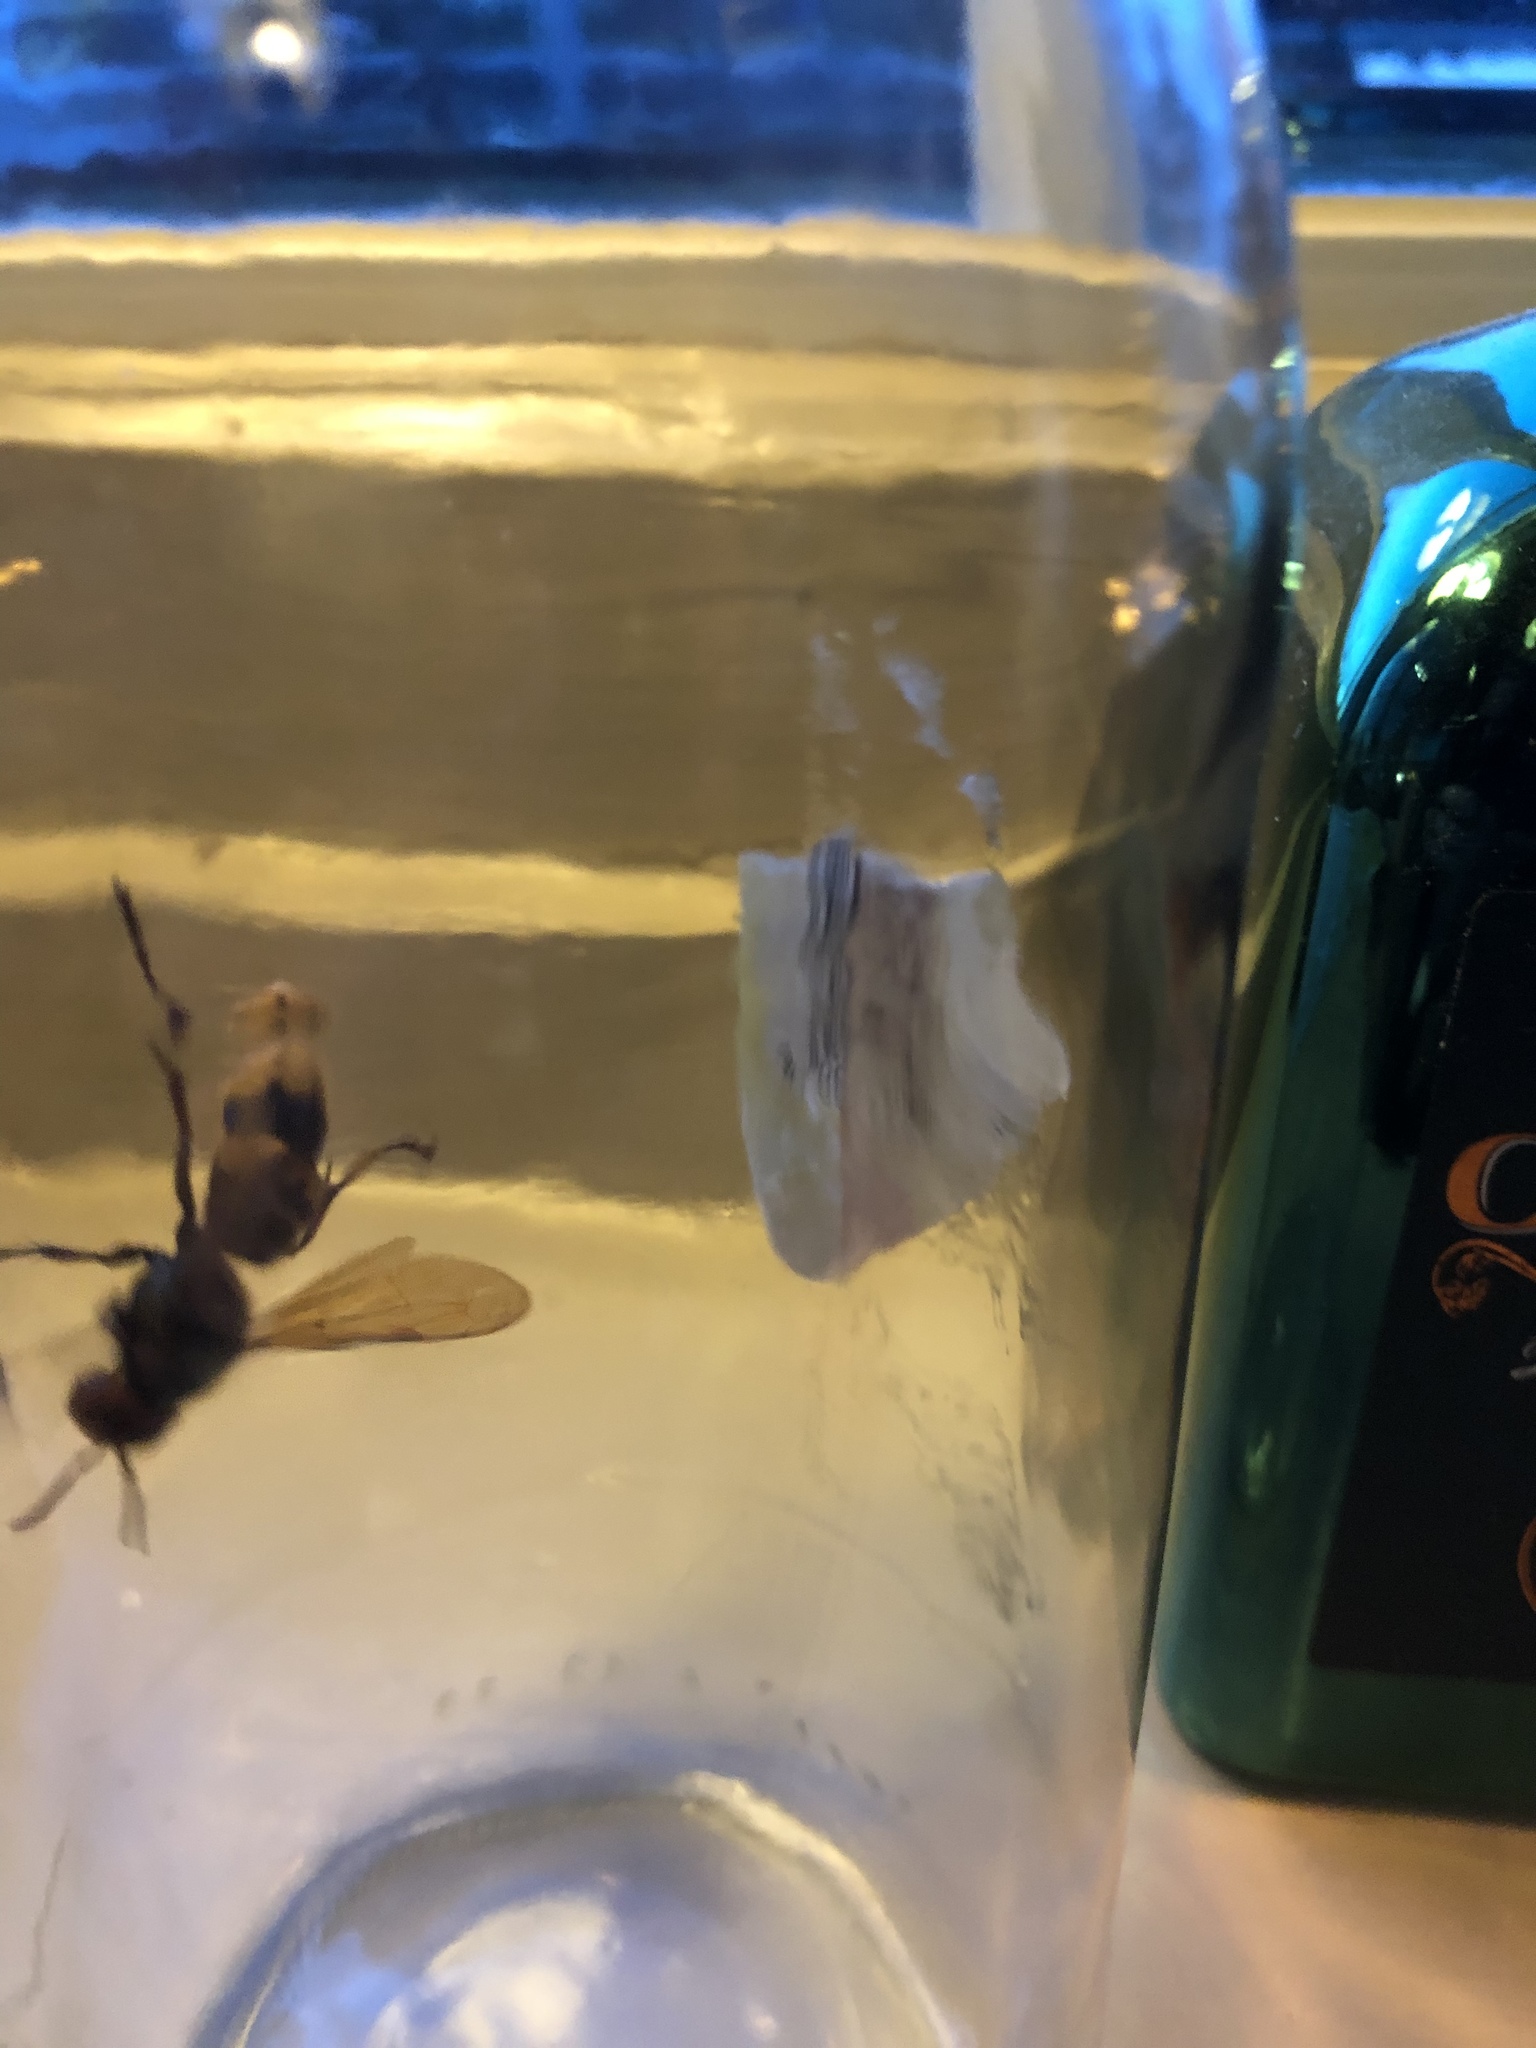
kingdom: Animalia
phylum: Arthropoda
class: Insecta
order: Hymenoptera
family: Vespidae
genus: Vespa
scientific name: Vespa crabro
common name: Hornet
